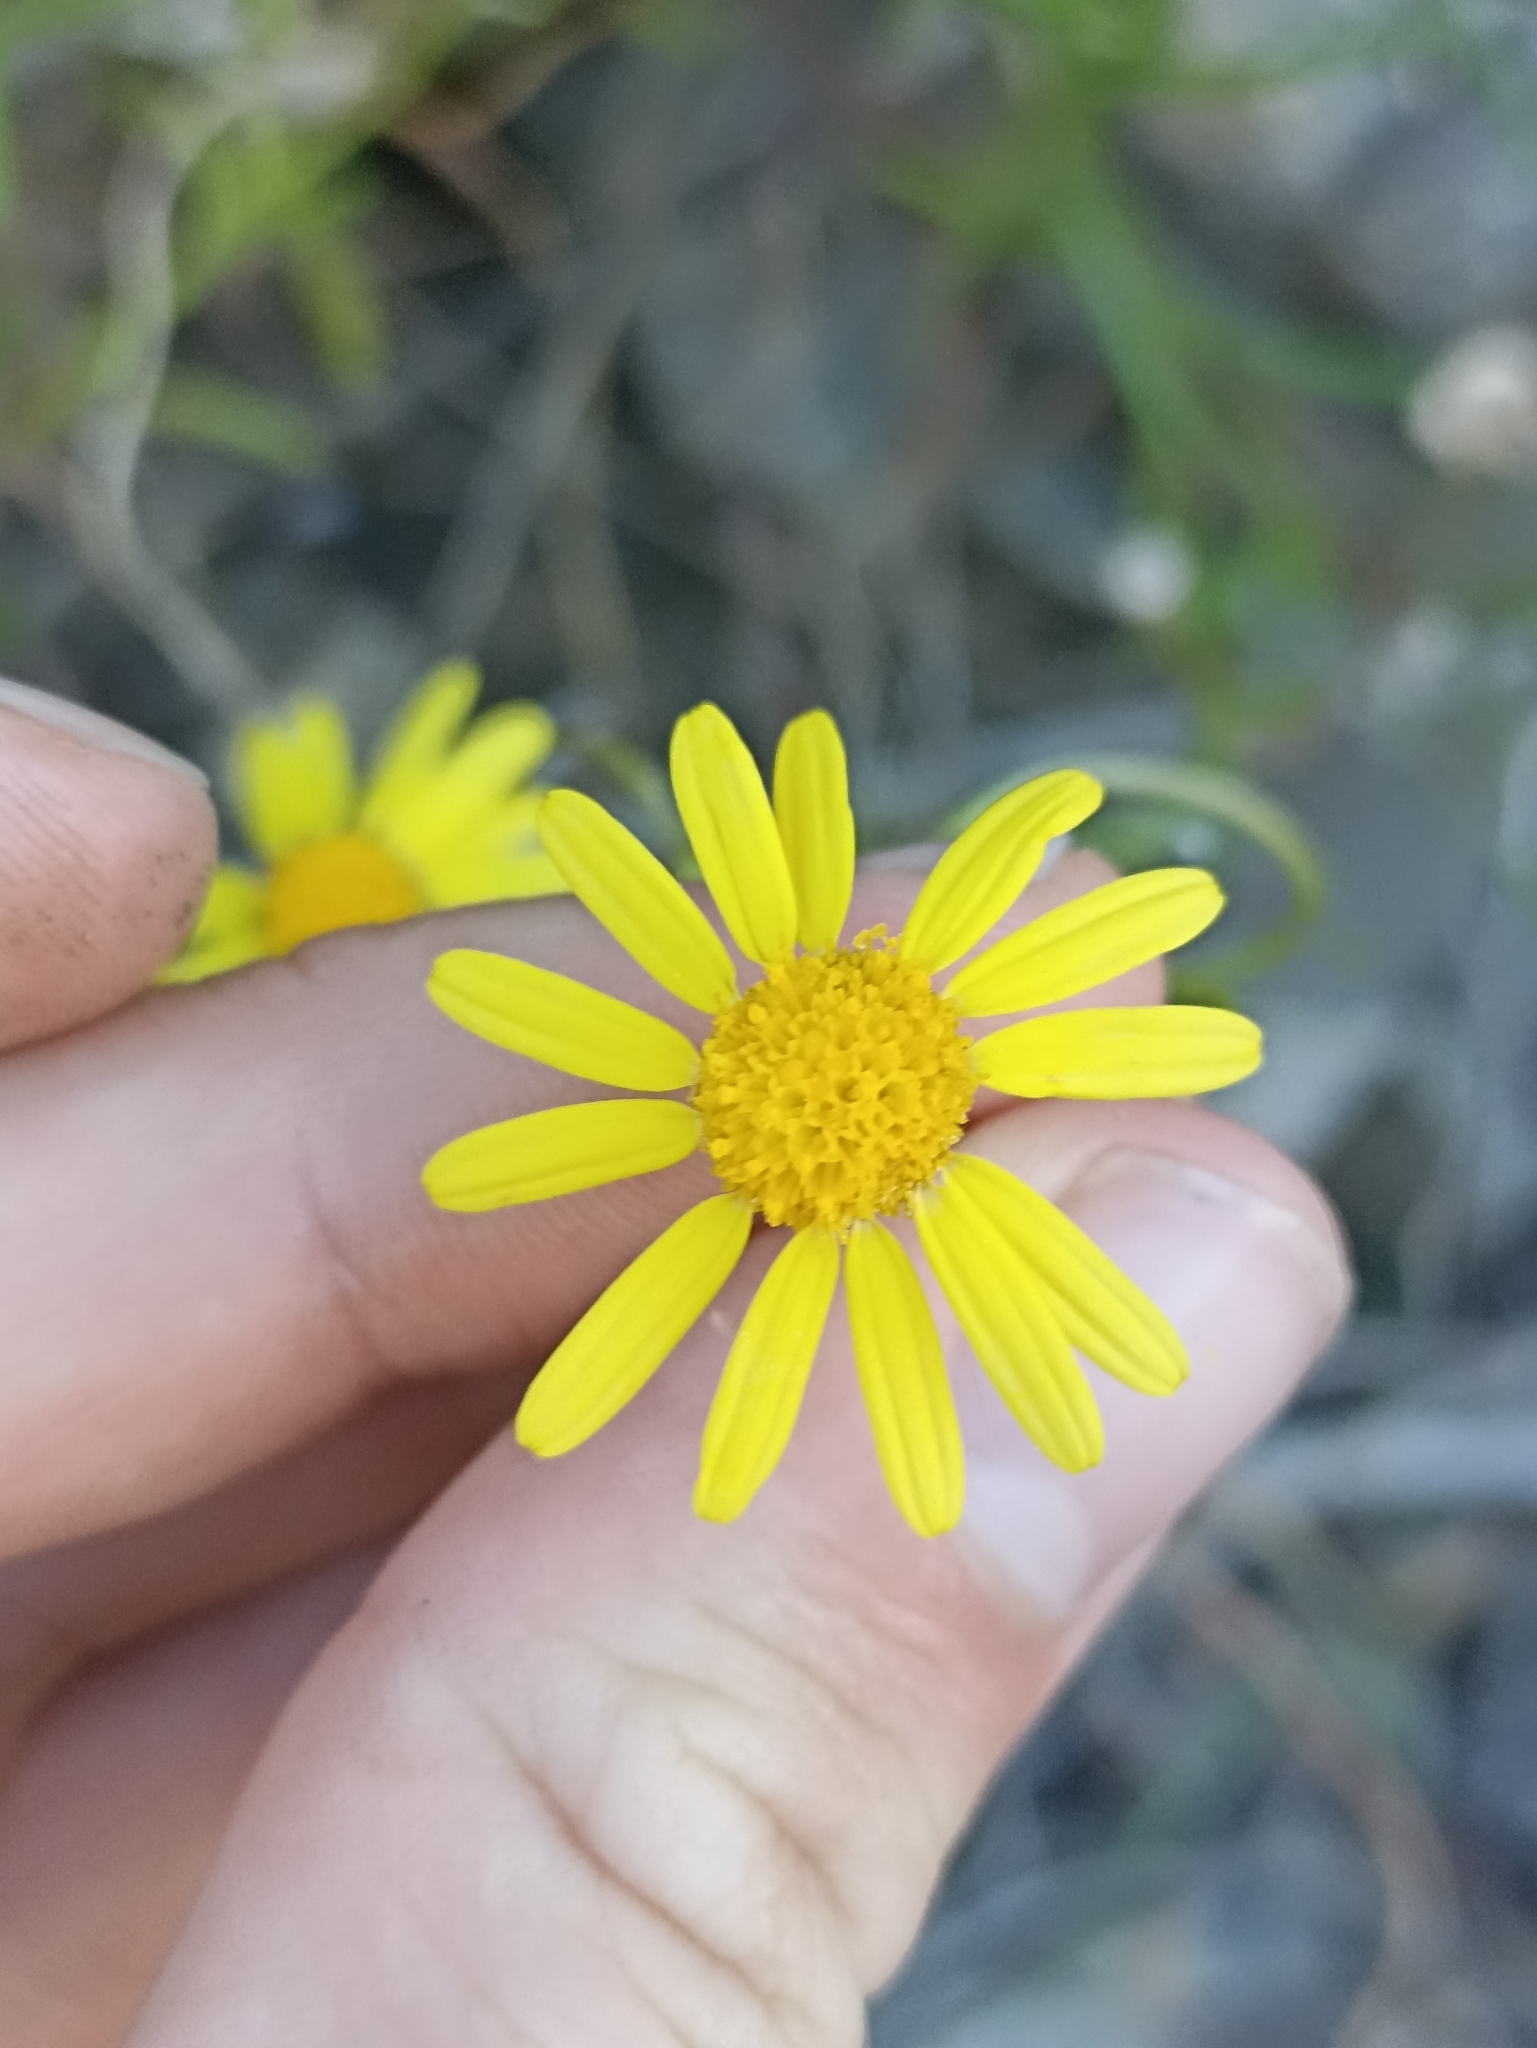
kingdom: Plantae
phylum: Tracheophyta
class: Magnoliopsida
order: Asterales
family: Asteraceae
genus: Senecio
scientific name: Senecio skirrhodon
